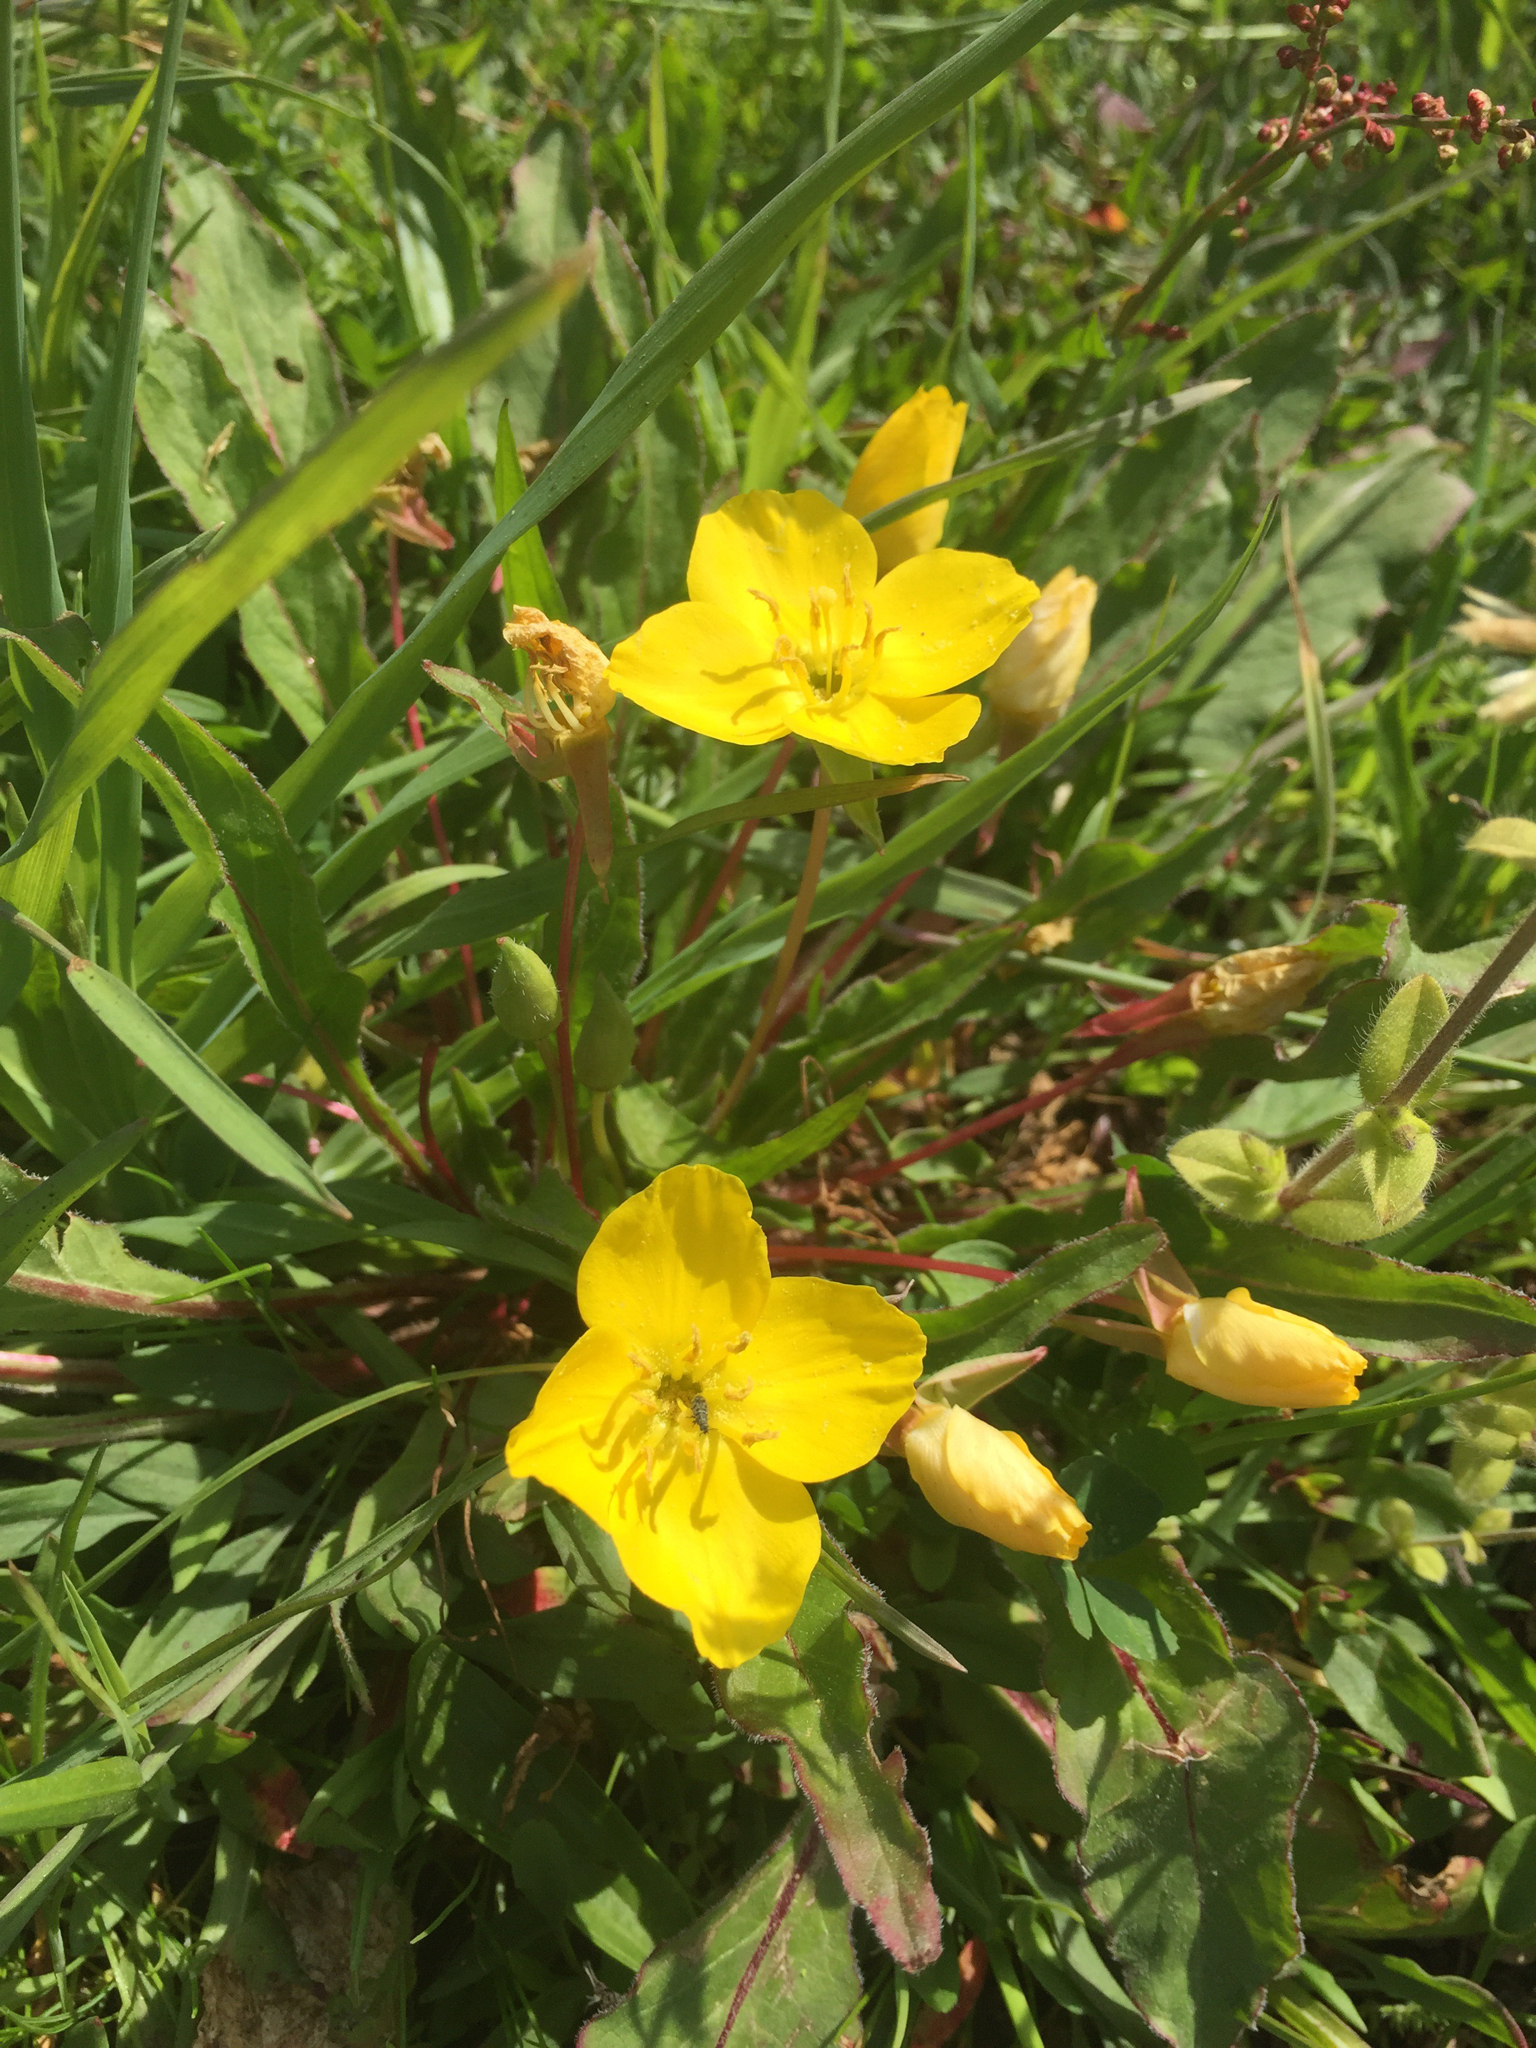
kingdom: Plantae
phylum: Tracheophyta
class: Magnoliopsida
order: Myrtales
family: Onagraceae
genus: Taraxia
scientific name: Taraxia ovata
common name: Goldeneggs
